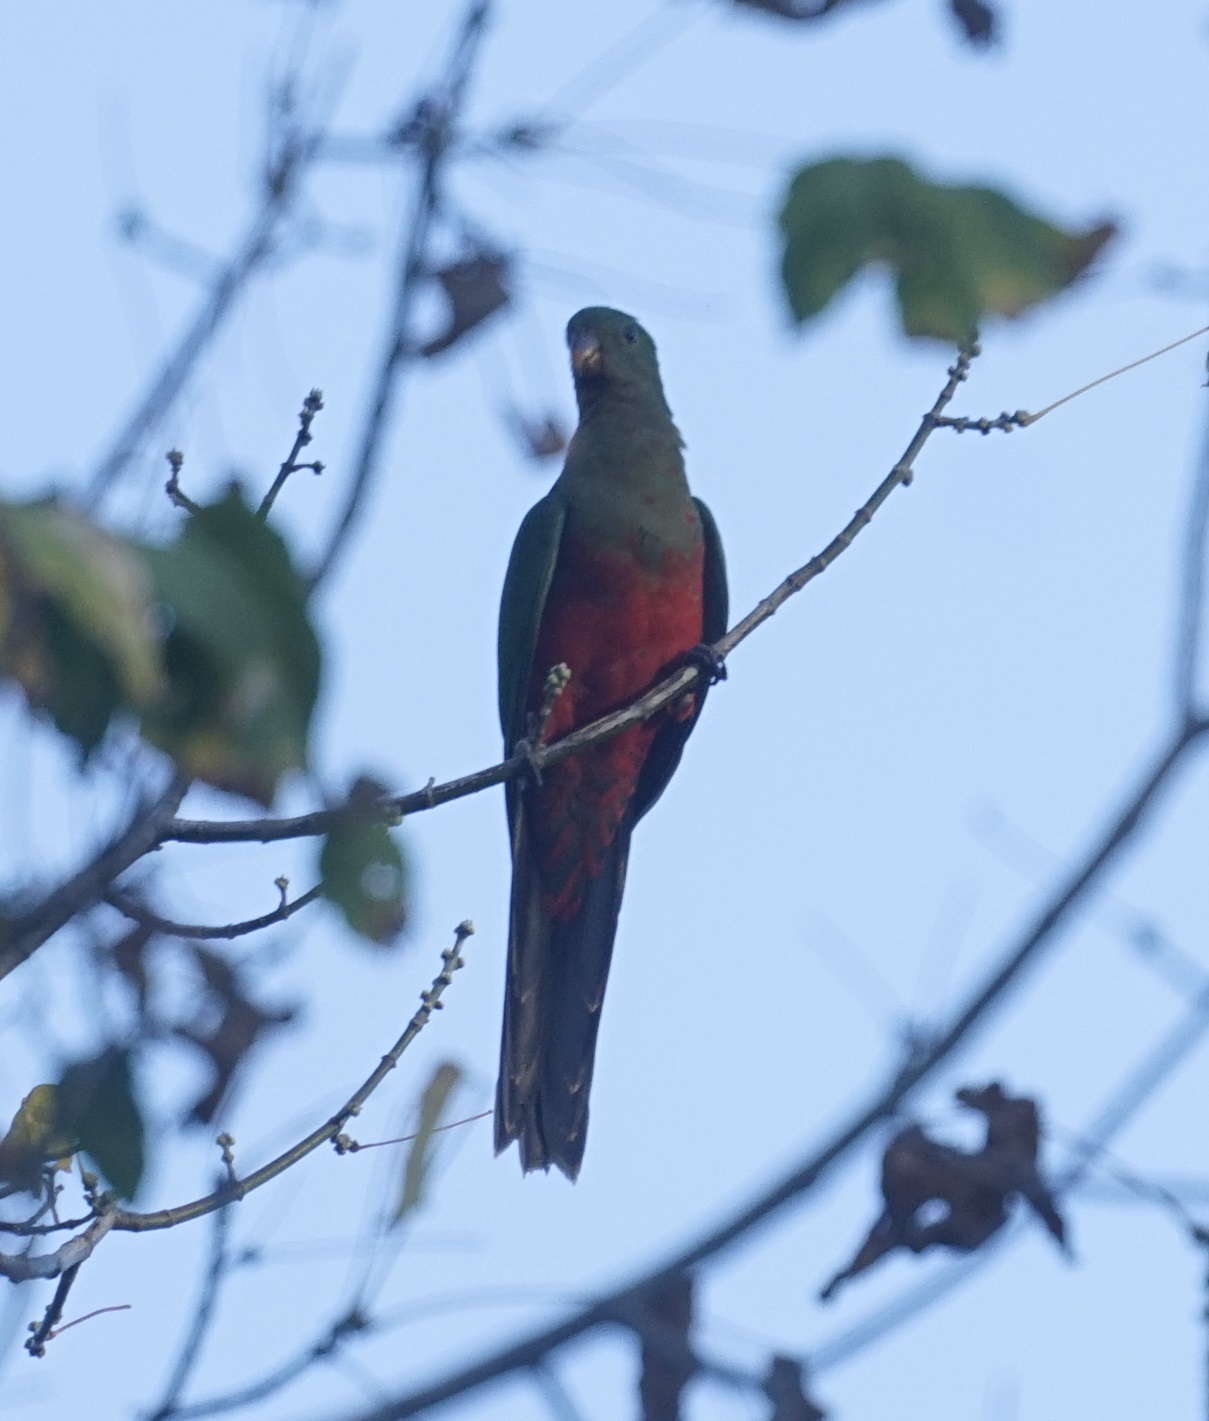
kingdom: Animalia
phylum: Chordata
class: Aves
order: Psittaciformes
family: Psittacidae
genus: Alisterus
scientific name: Alisterus scapularis
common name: Australian king parrot
